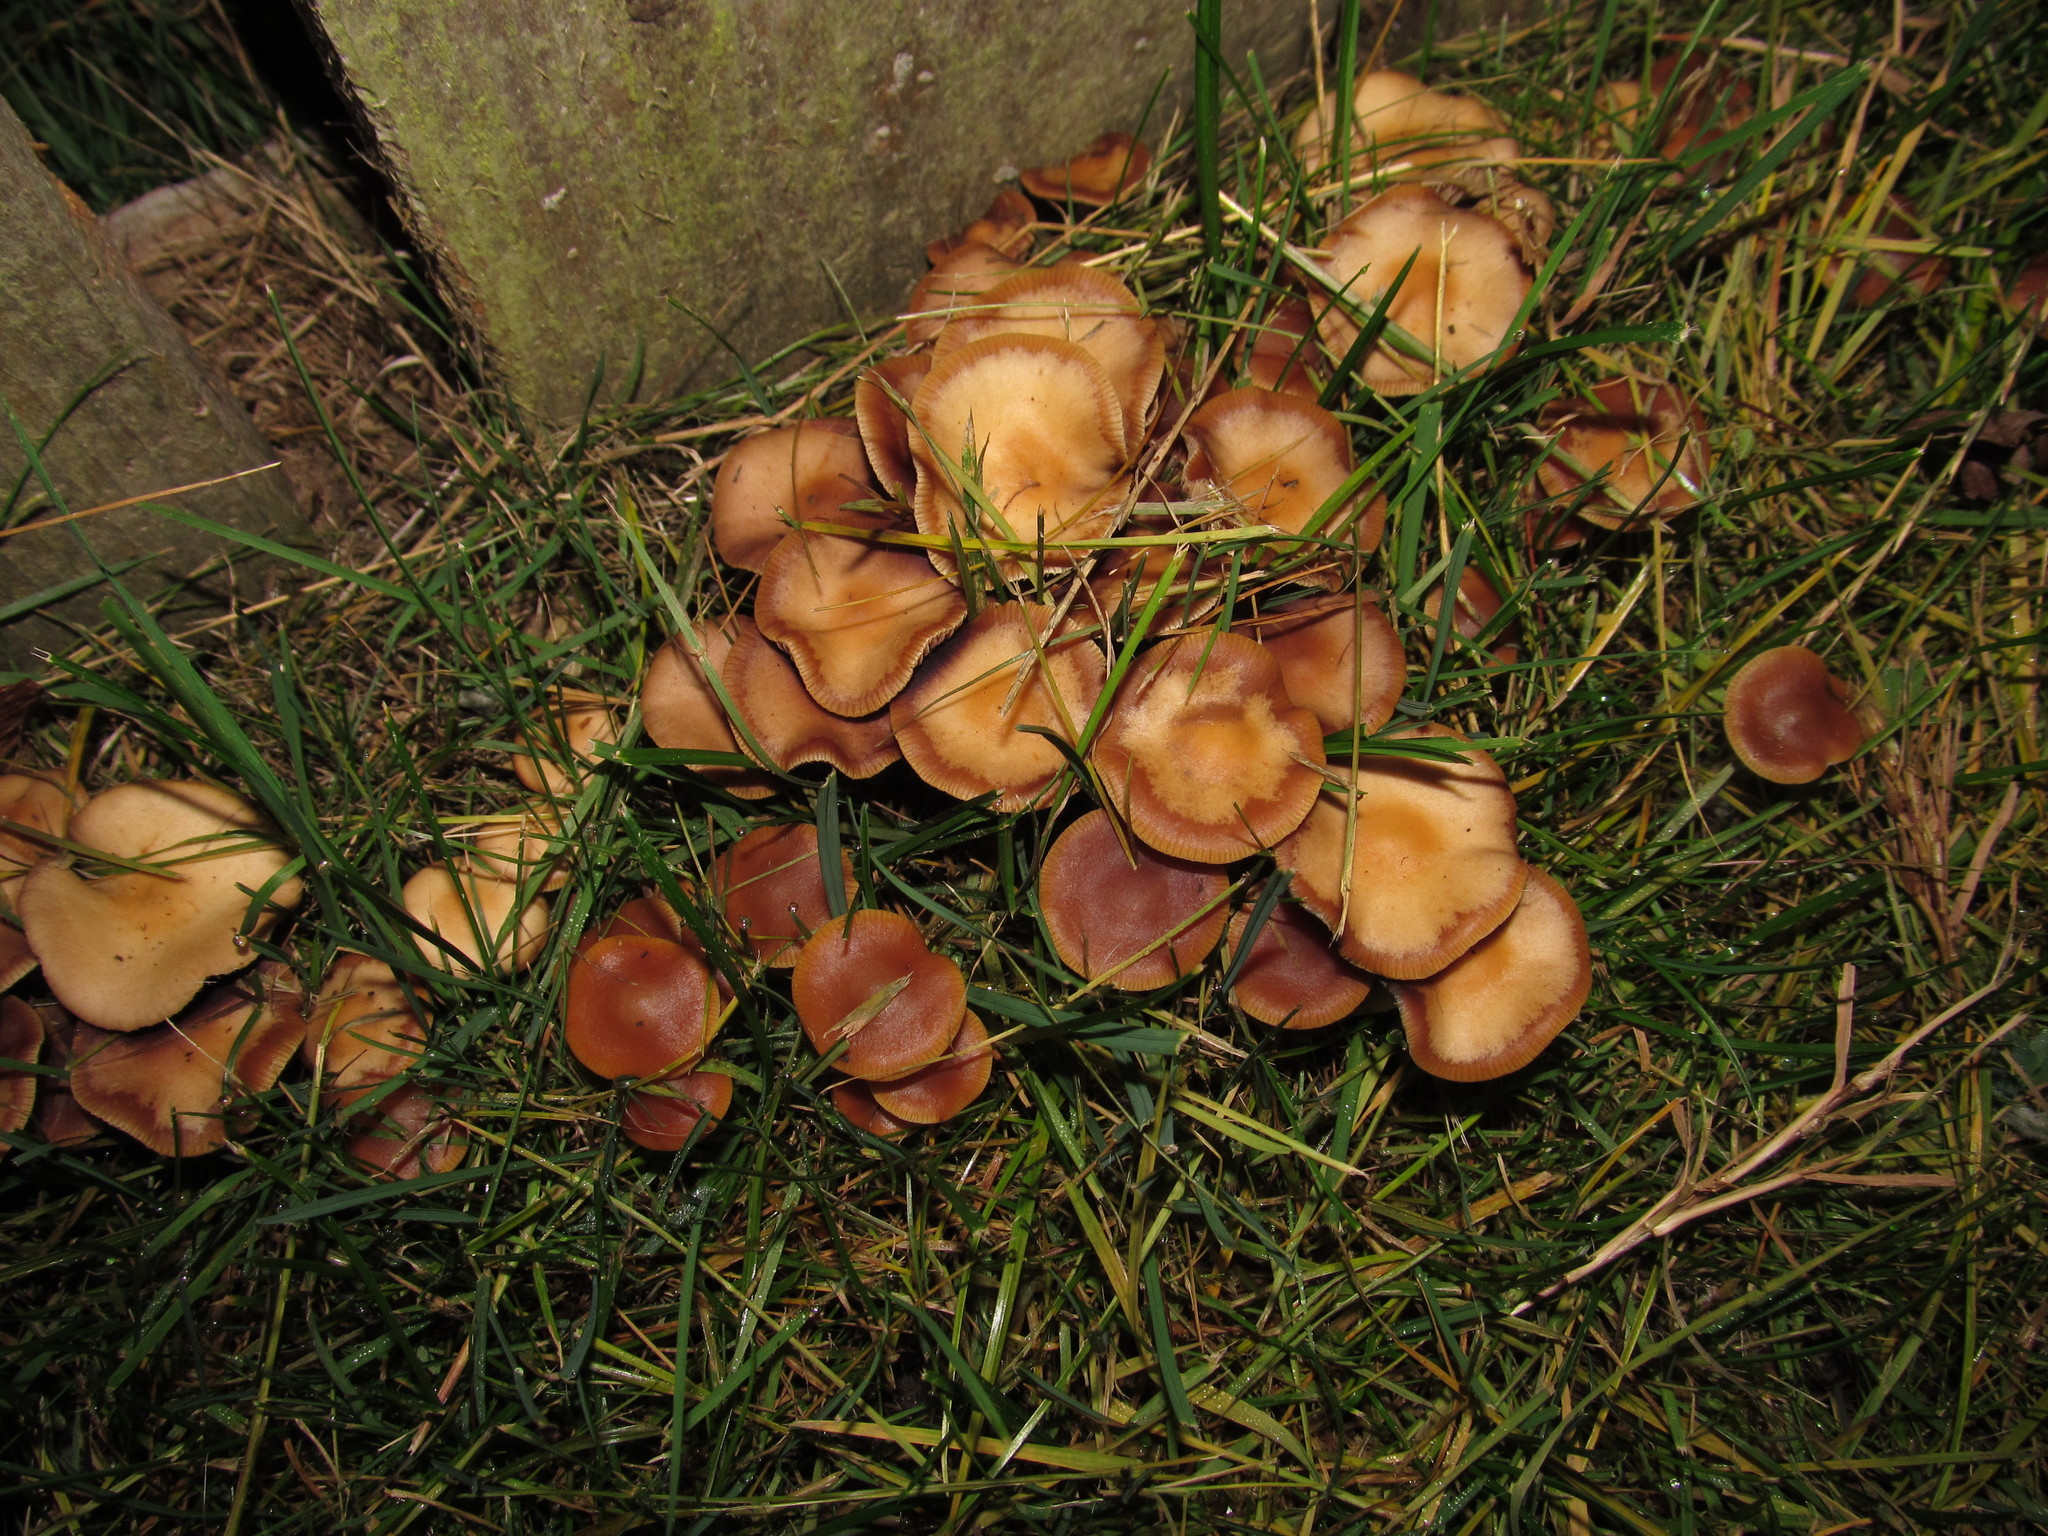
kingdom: Fungi
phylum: Basidiomycota
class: Agaricomycetes
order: Agaricales
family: Hymenogastraceae
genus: Psilocybe
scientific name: Psilocybe cyanescens
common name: Blueleg brownie
